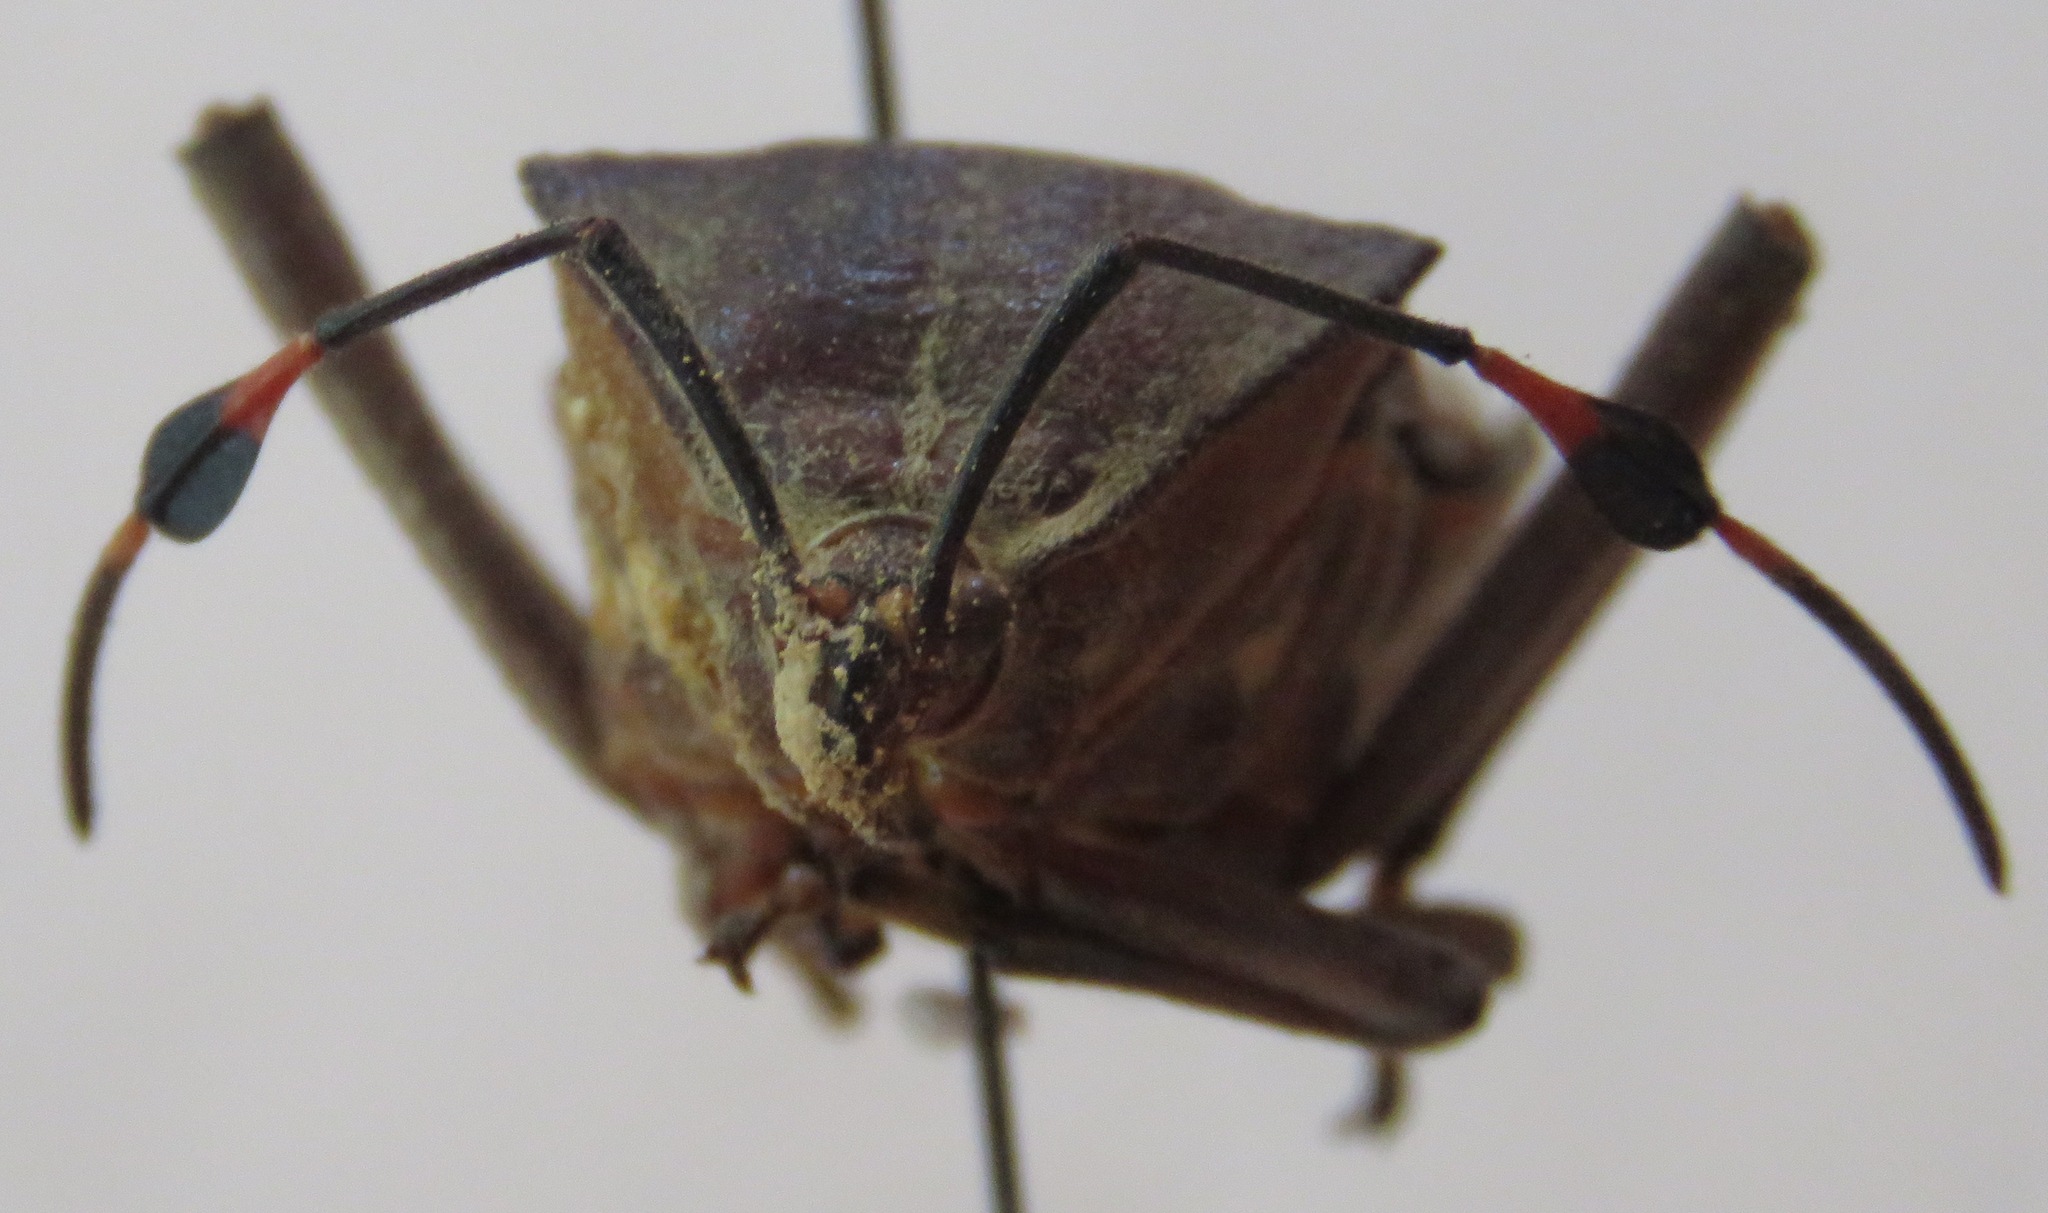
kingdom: Animalia
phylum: Arthropoda
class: Insecta
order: Hemiptera
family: Coreidae
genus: Pachylis
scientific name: Pachylis nervosus
